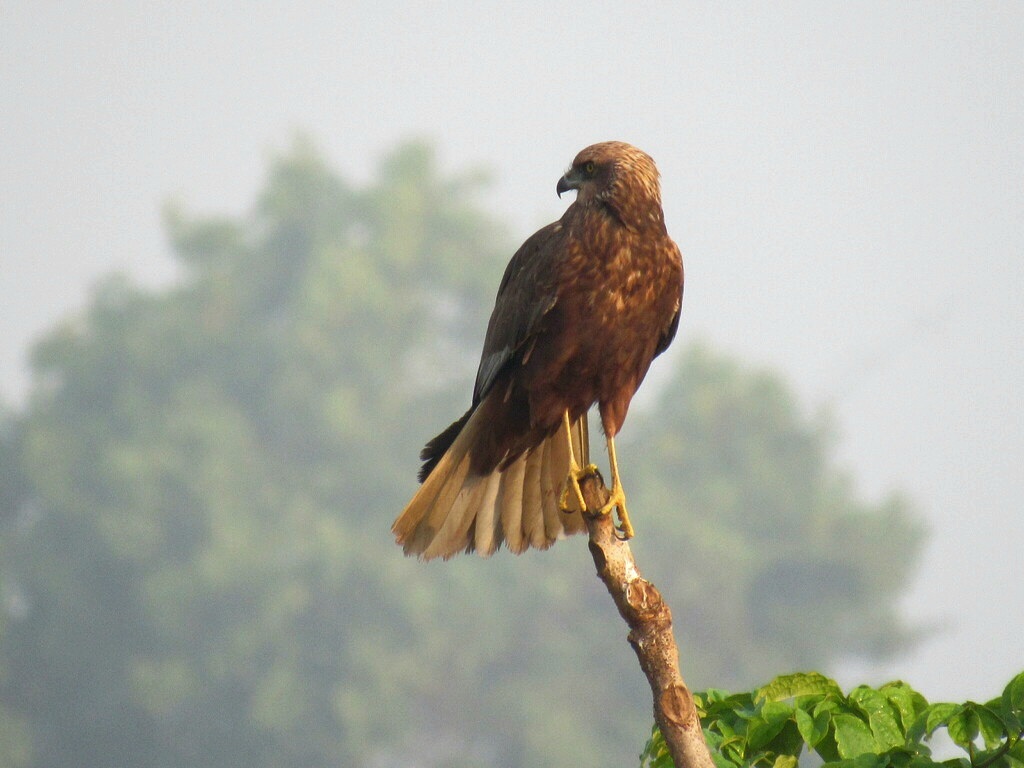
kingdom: Animalia
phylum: Chordata
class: Aves
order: Accipitriformes
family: Accipitridae
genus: Circus
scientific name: Circus aeruginosus
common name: Western marsh harrier
